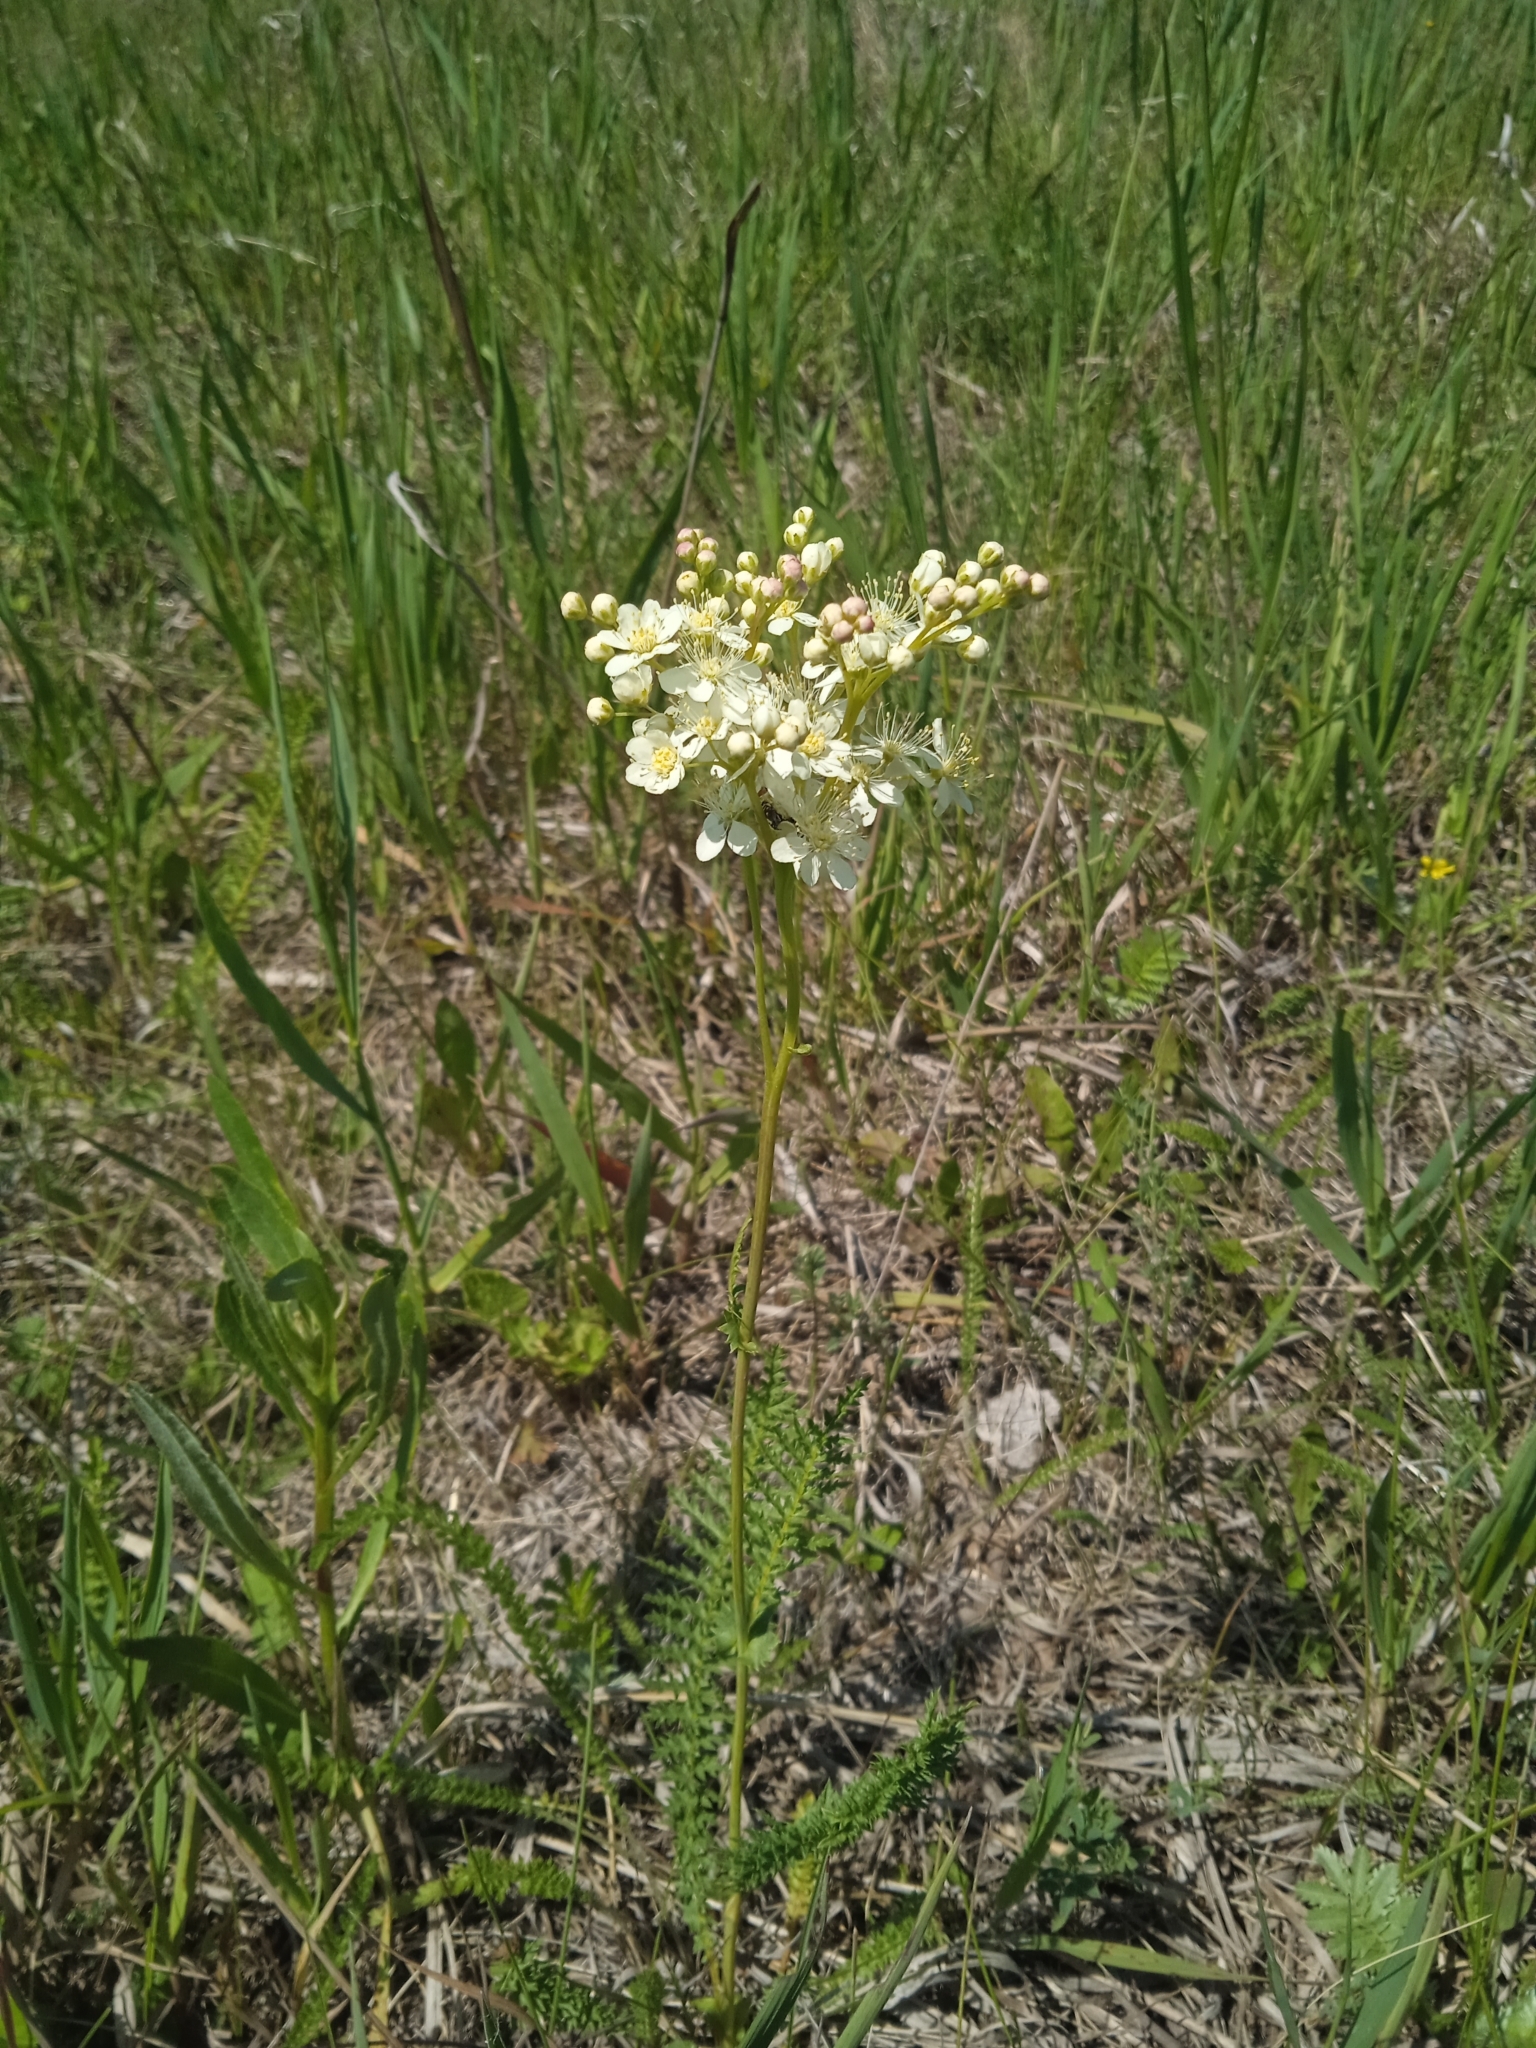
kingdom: Plantae
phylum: Tracheophyta
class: Magnoliopsida
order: Rosales
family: Rosaceae
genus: Filipendula
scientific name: Filipendula vulgaris
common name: Dropwort
